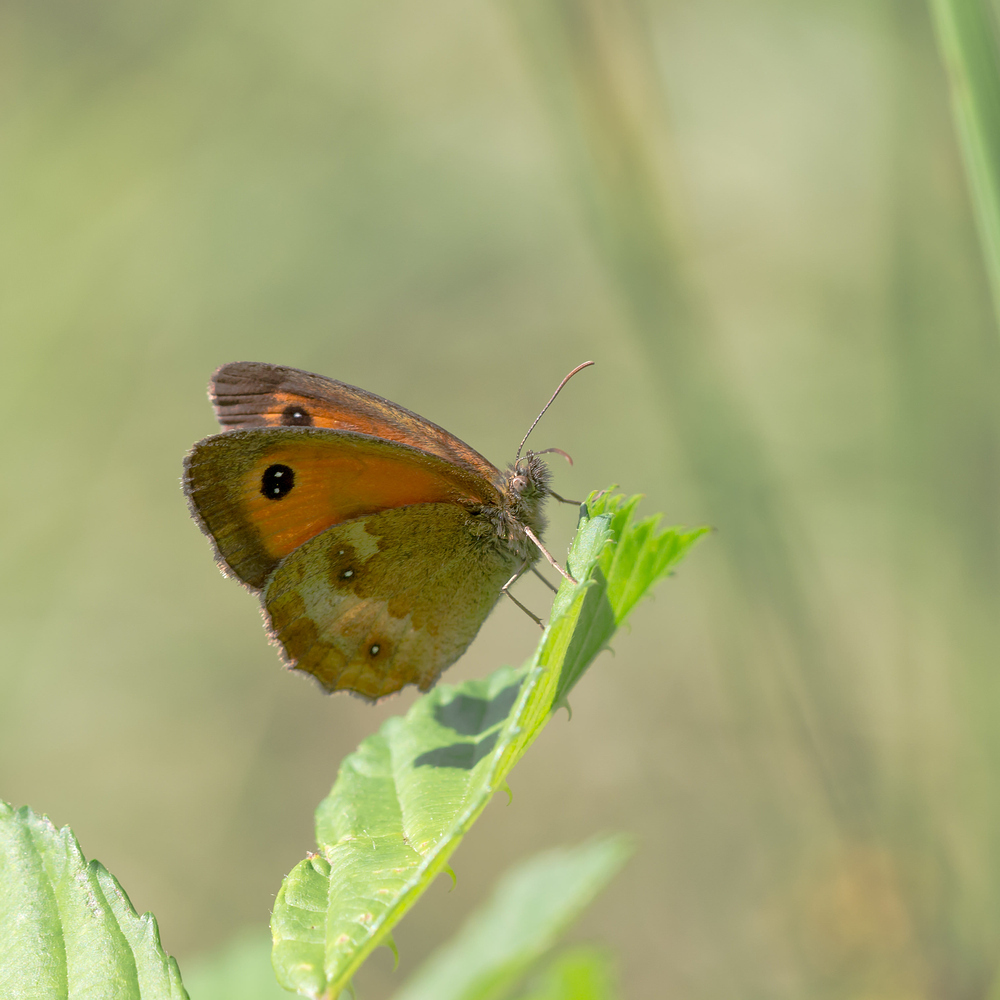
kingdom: Animalia
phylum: Arthropoda
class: Insecta
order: Lepidoptera
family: Nymphalidae
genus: Pyronia
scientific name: Pyronia tithonus
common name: Gatekeeper
